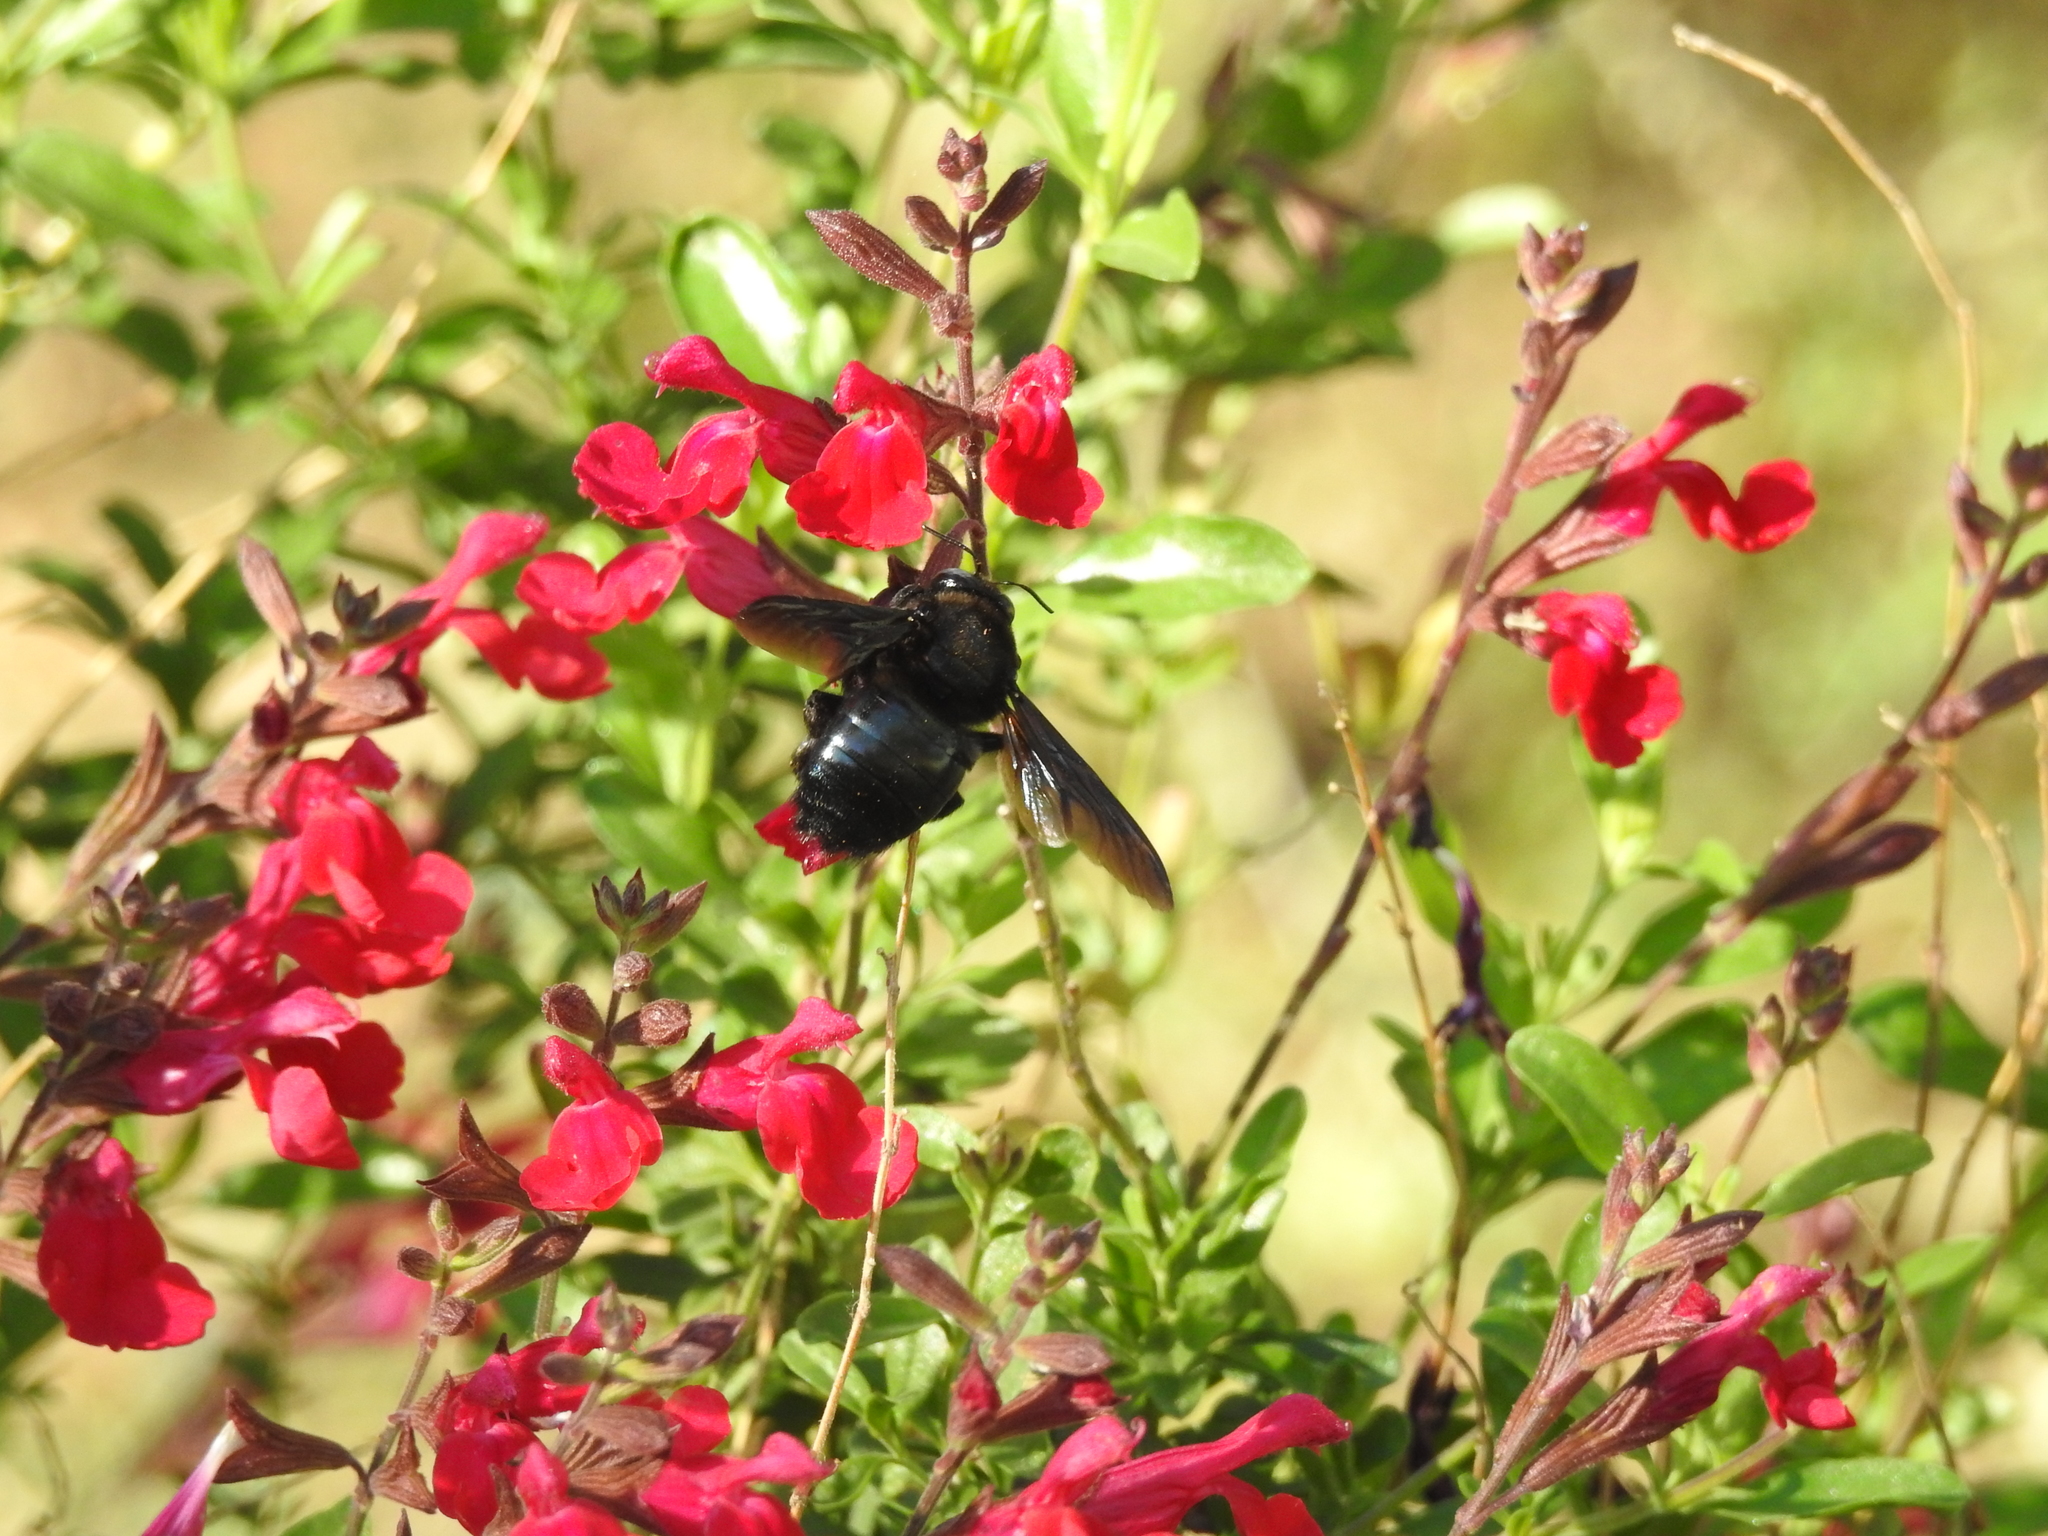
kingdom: Animalia
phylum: Arthropoda
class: Insecta
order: Hymenoptera
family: Apidae
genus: Xylocopa
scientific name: Xylocopa californica
